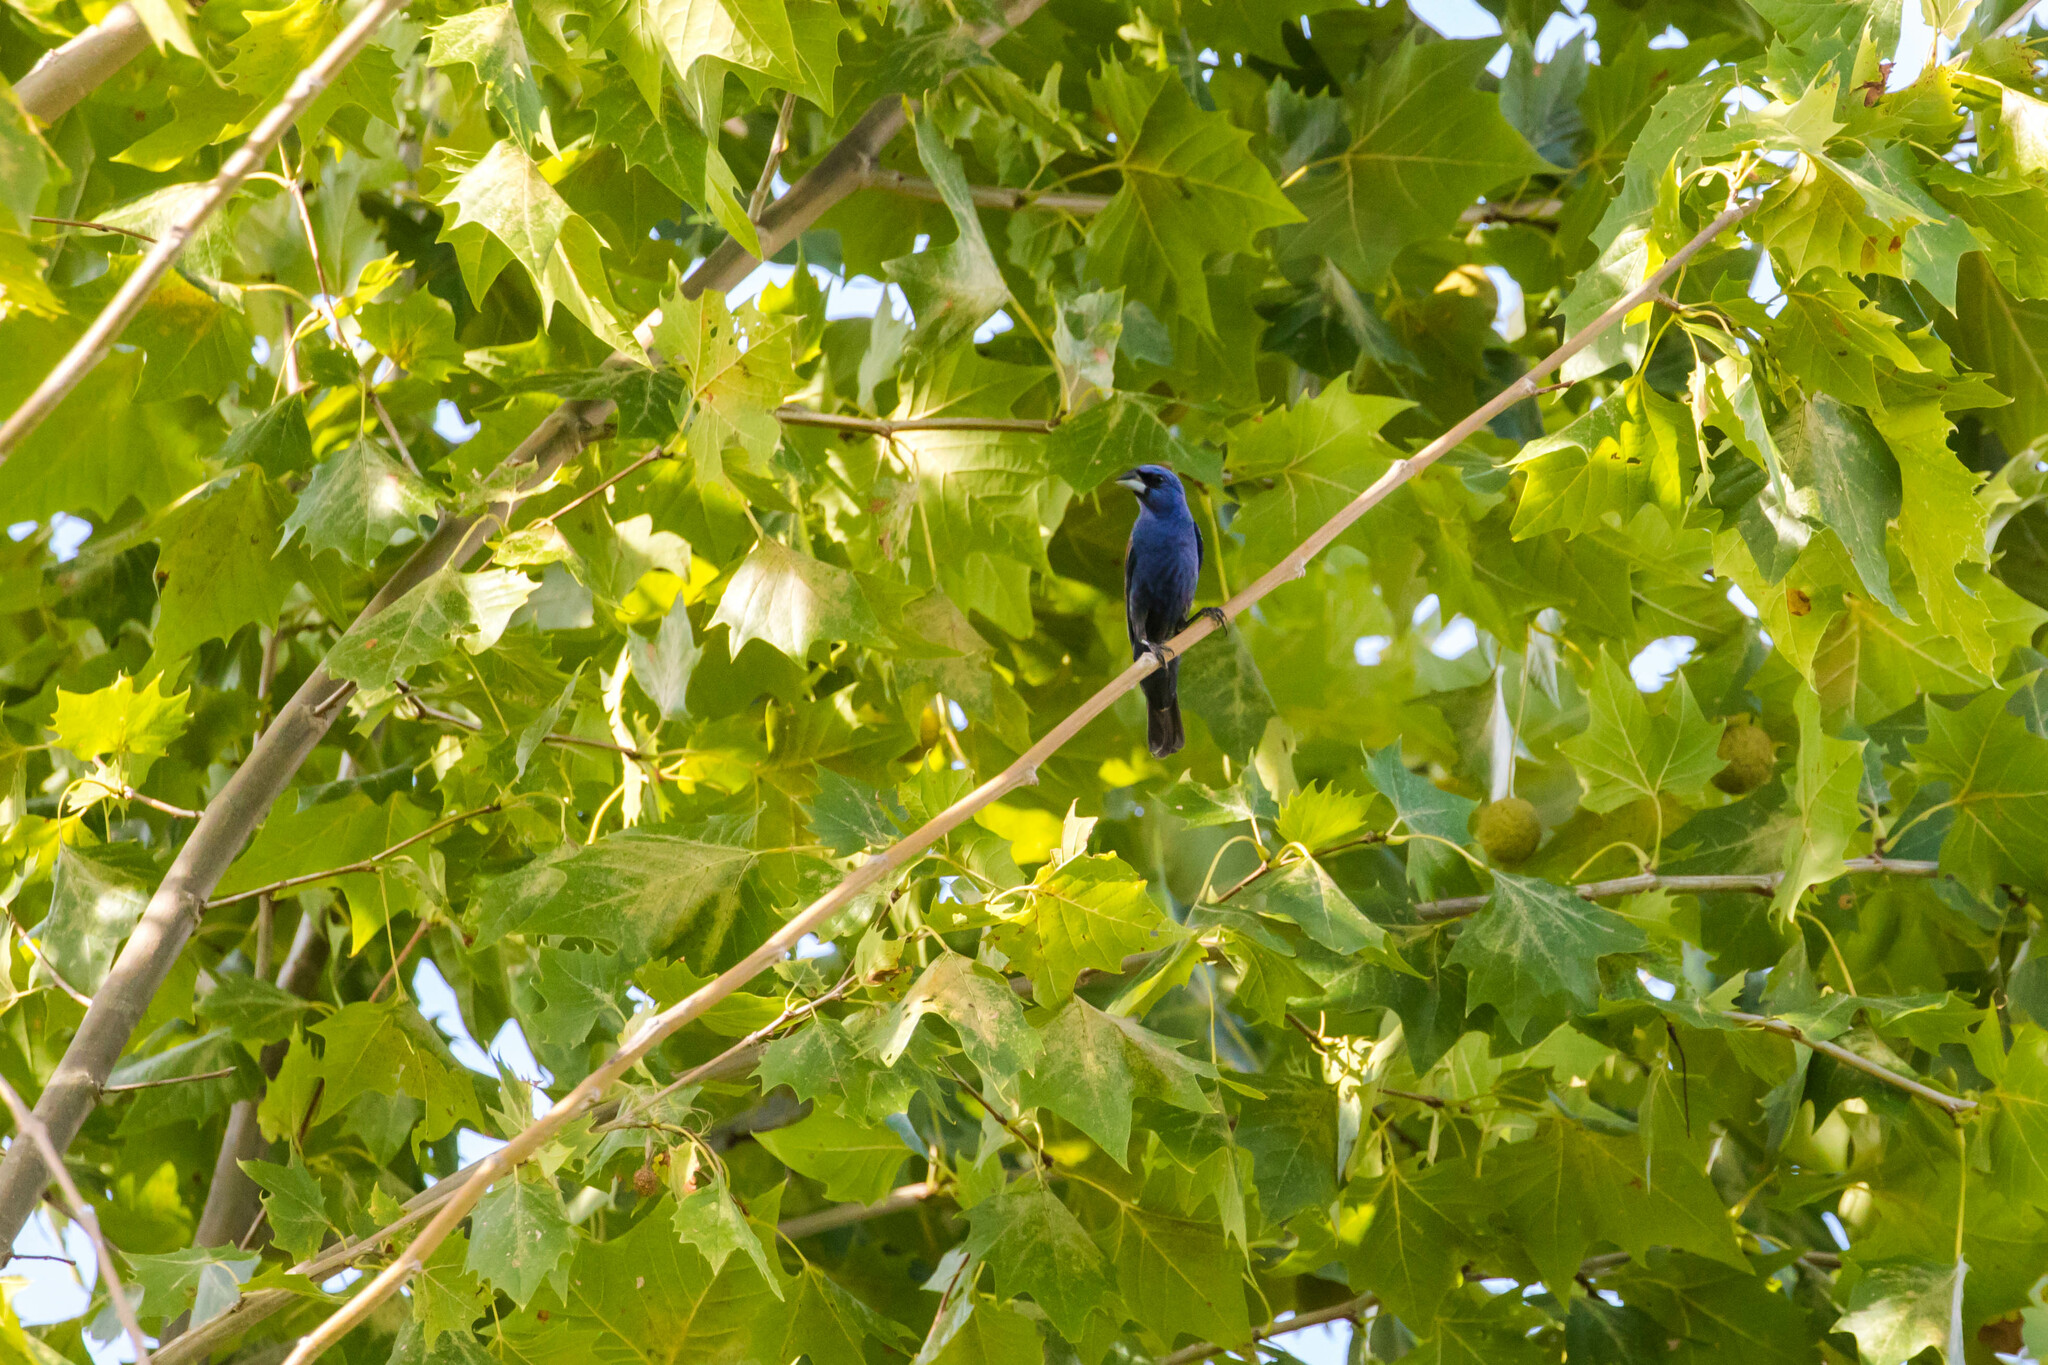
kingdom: Animalia
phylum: Chordata
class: Aves
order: Passeriformes
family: Cardinalidae
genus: Passerina
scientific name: Passerina caerulea
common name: Blue grosbeak
